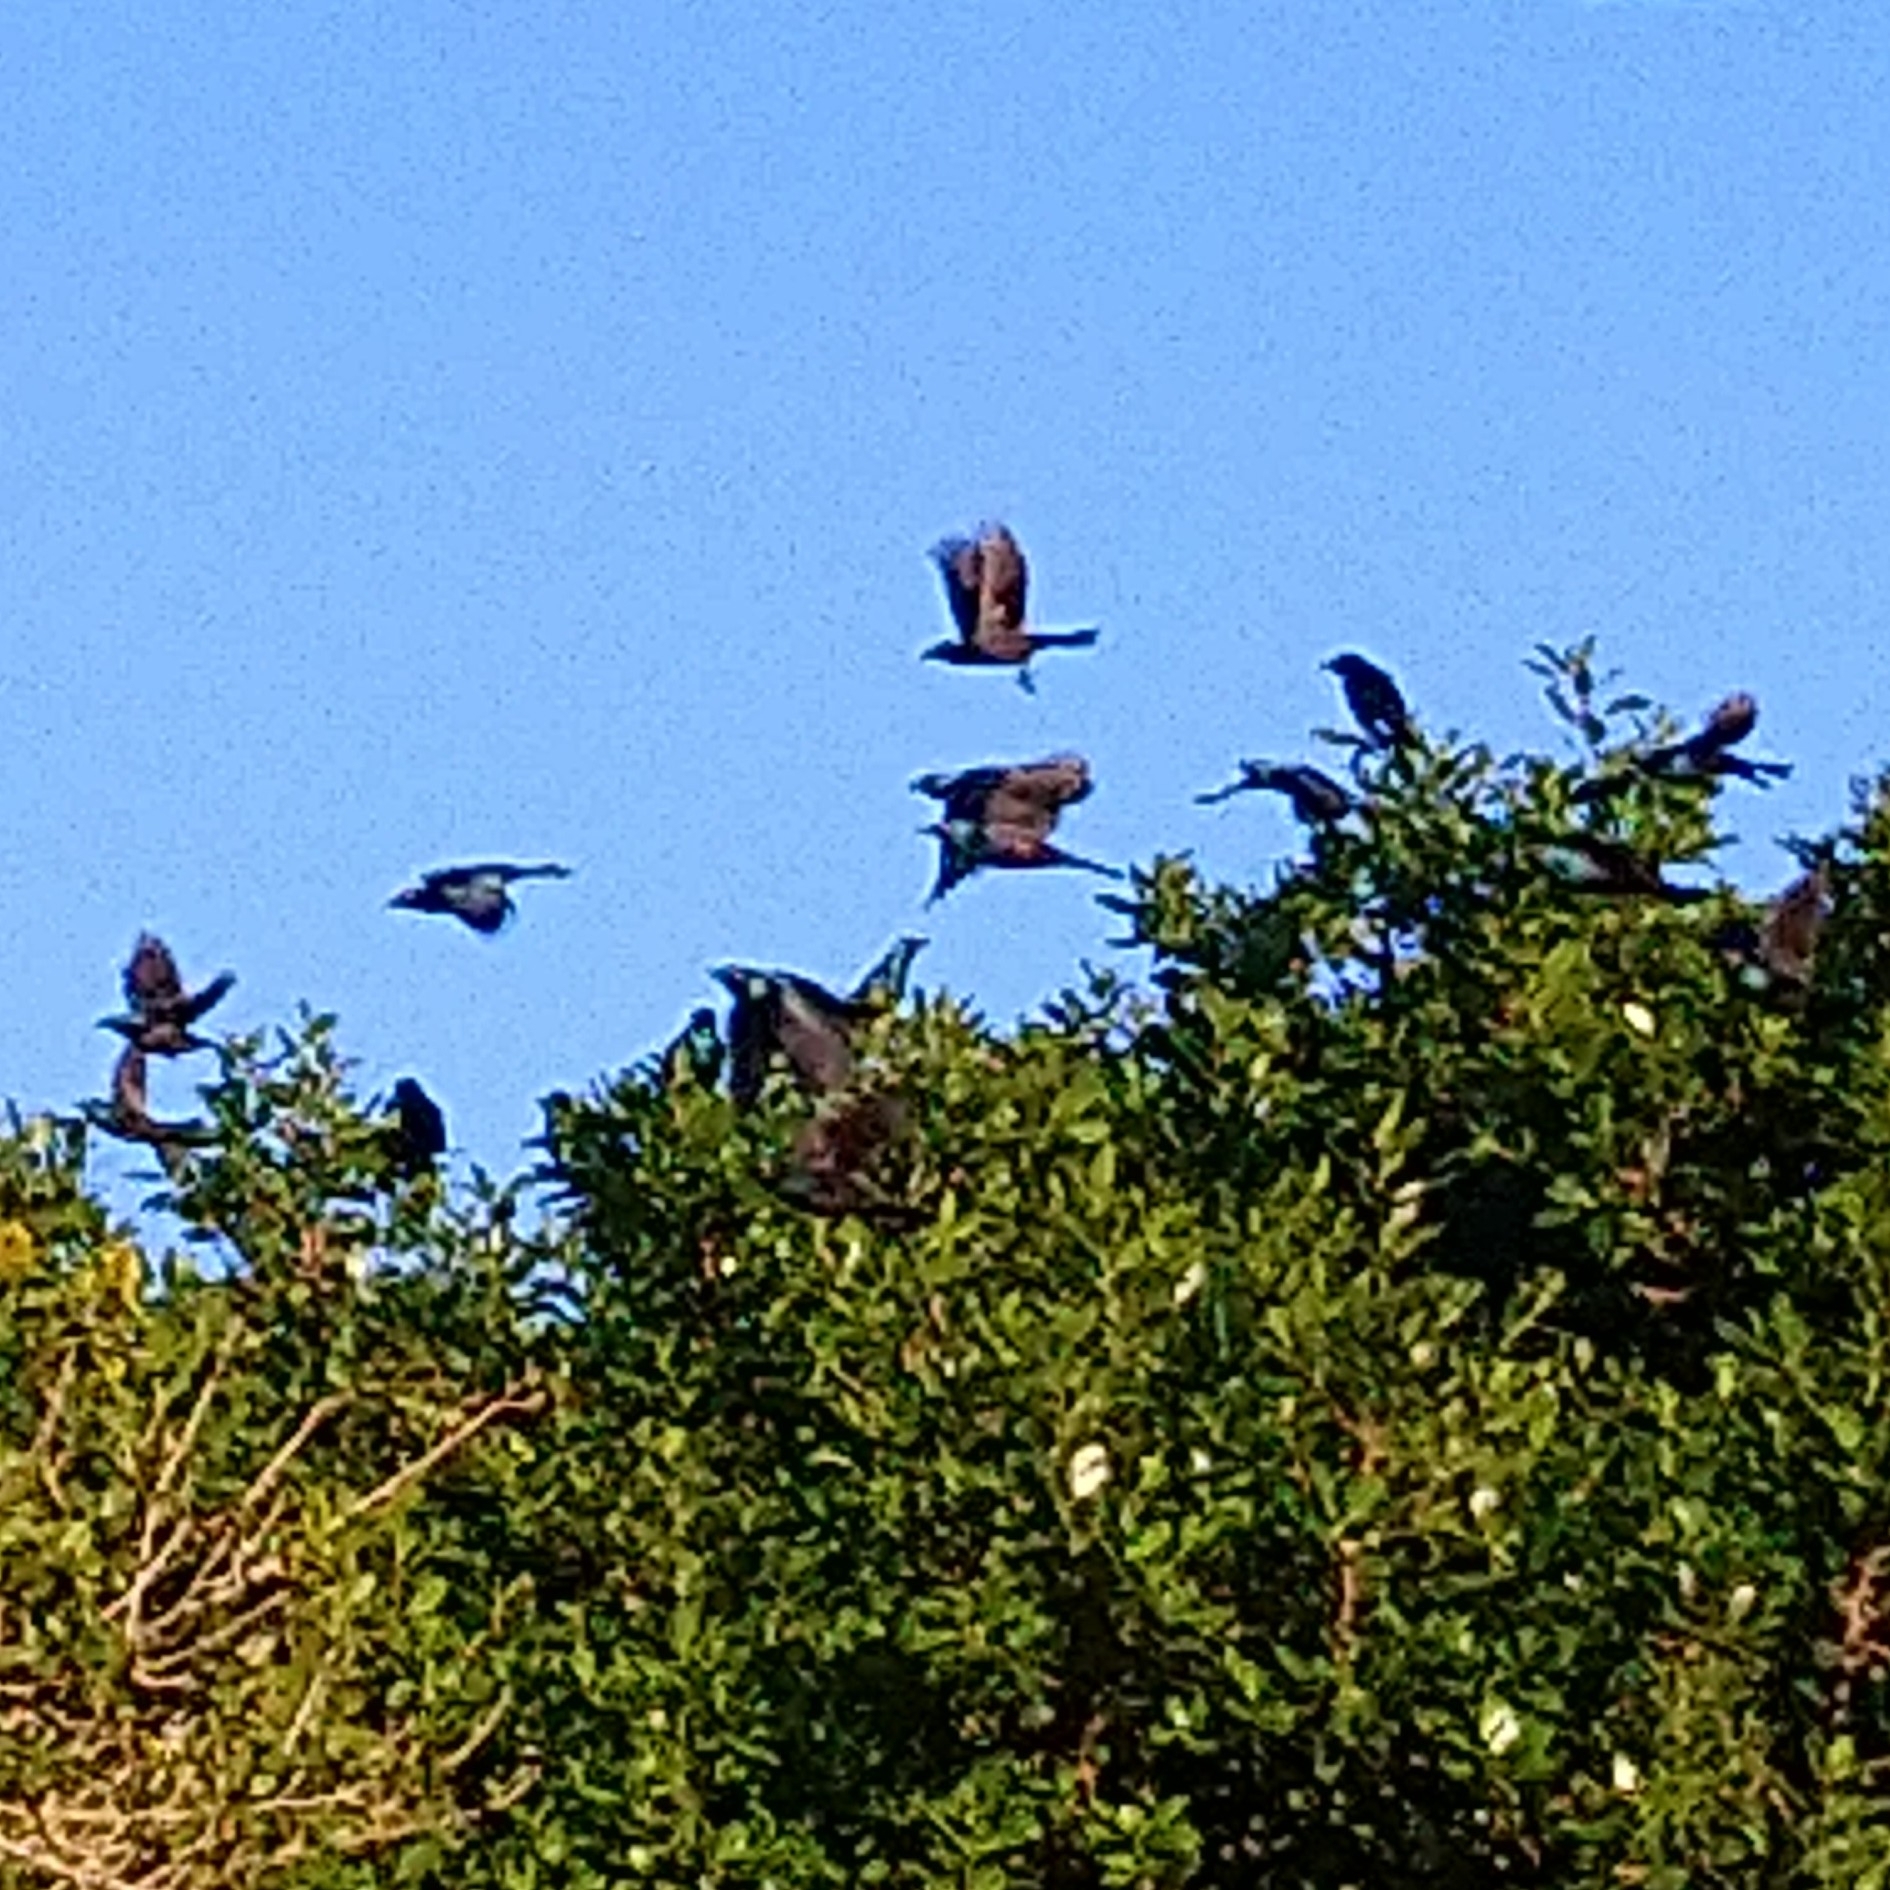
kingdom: Animalia
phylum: Chordata
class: Aves
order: Passeriformes
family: Sturnidae
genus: Lamprotornis
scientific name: Lamprotornis nitens
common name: Cape starling
